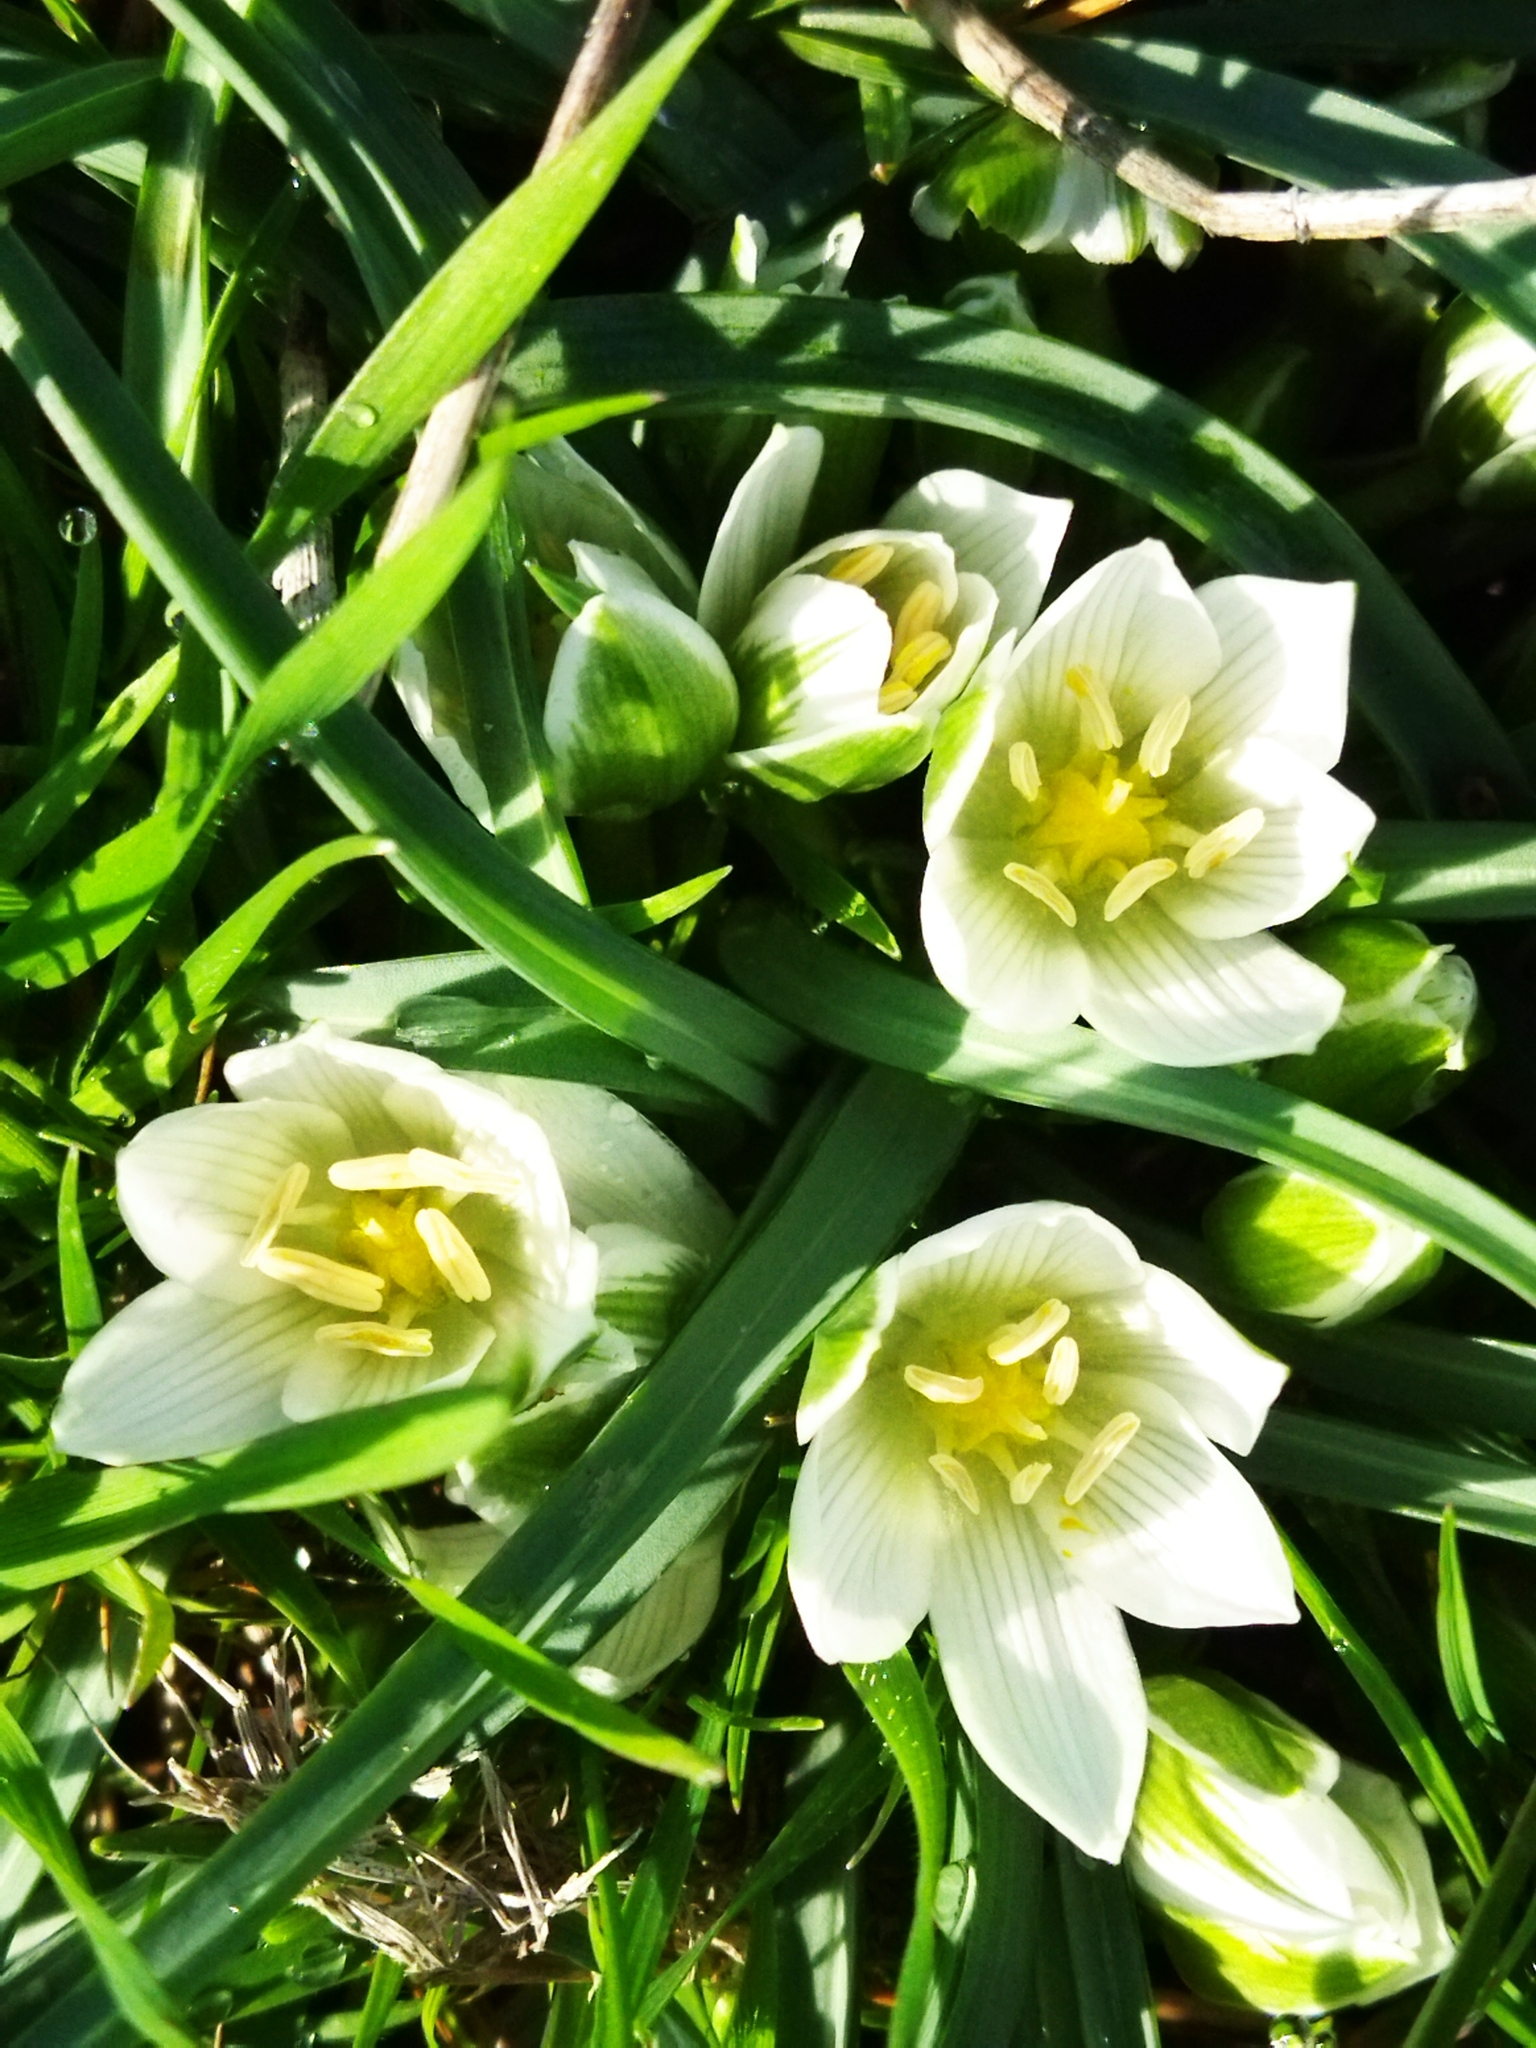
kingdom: Plantae
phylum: Tracheophyta
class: Liliopsida
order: Asparagales
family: Asparagaceae
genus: Ornithogalum
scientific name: Ornithogalum
